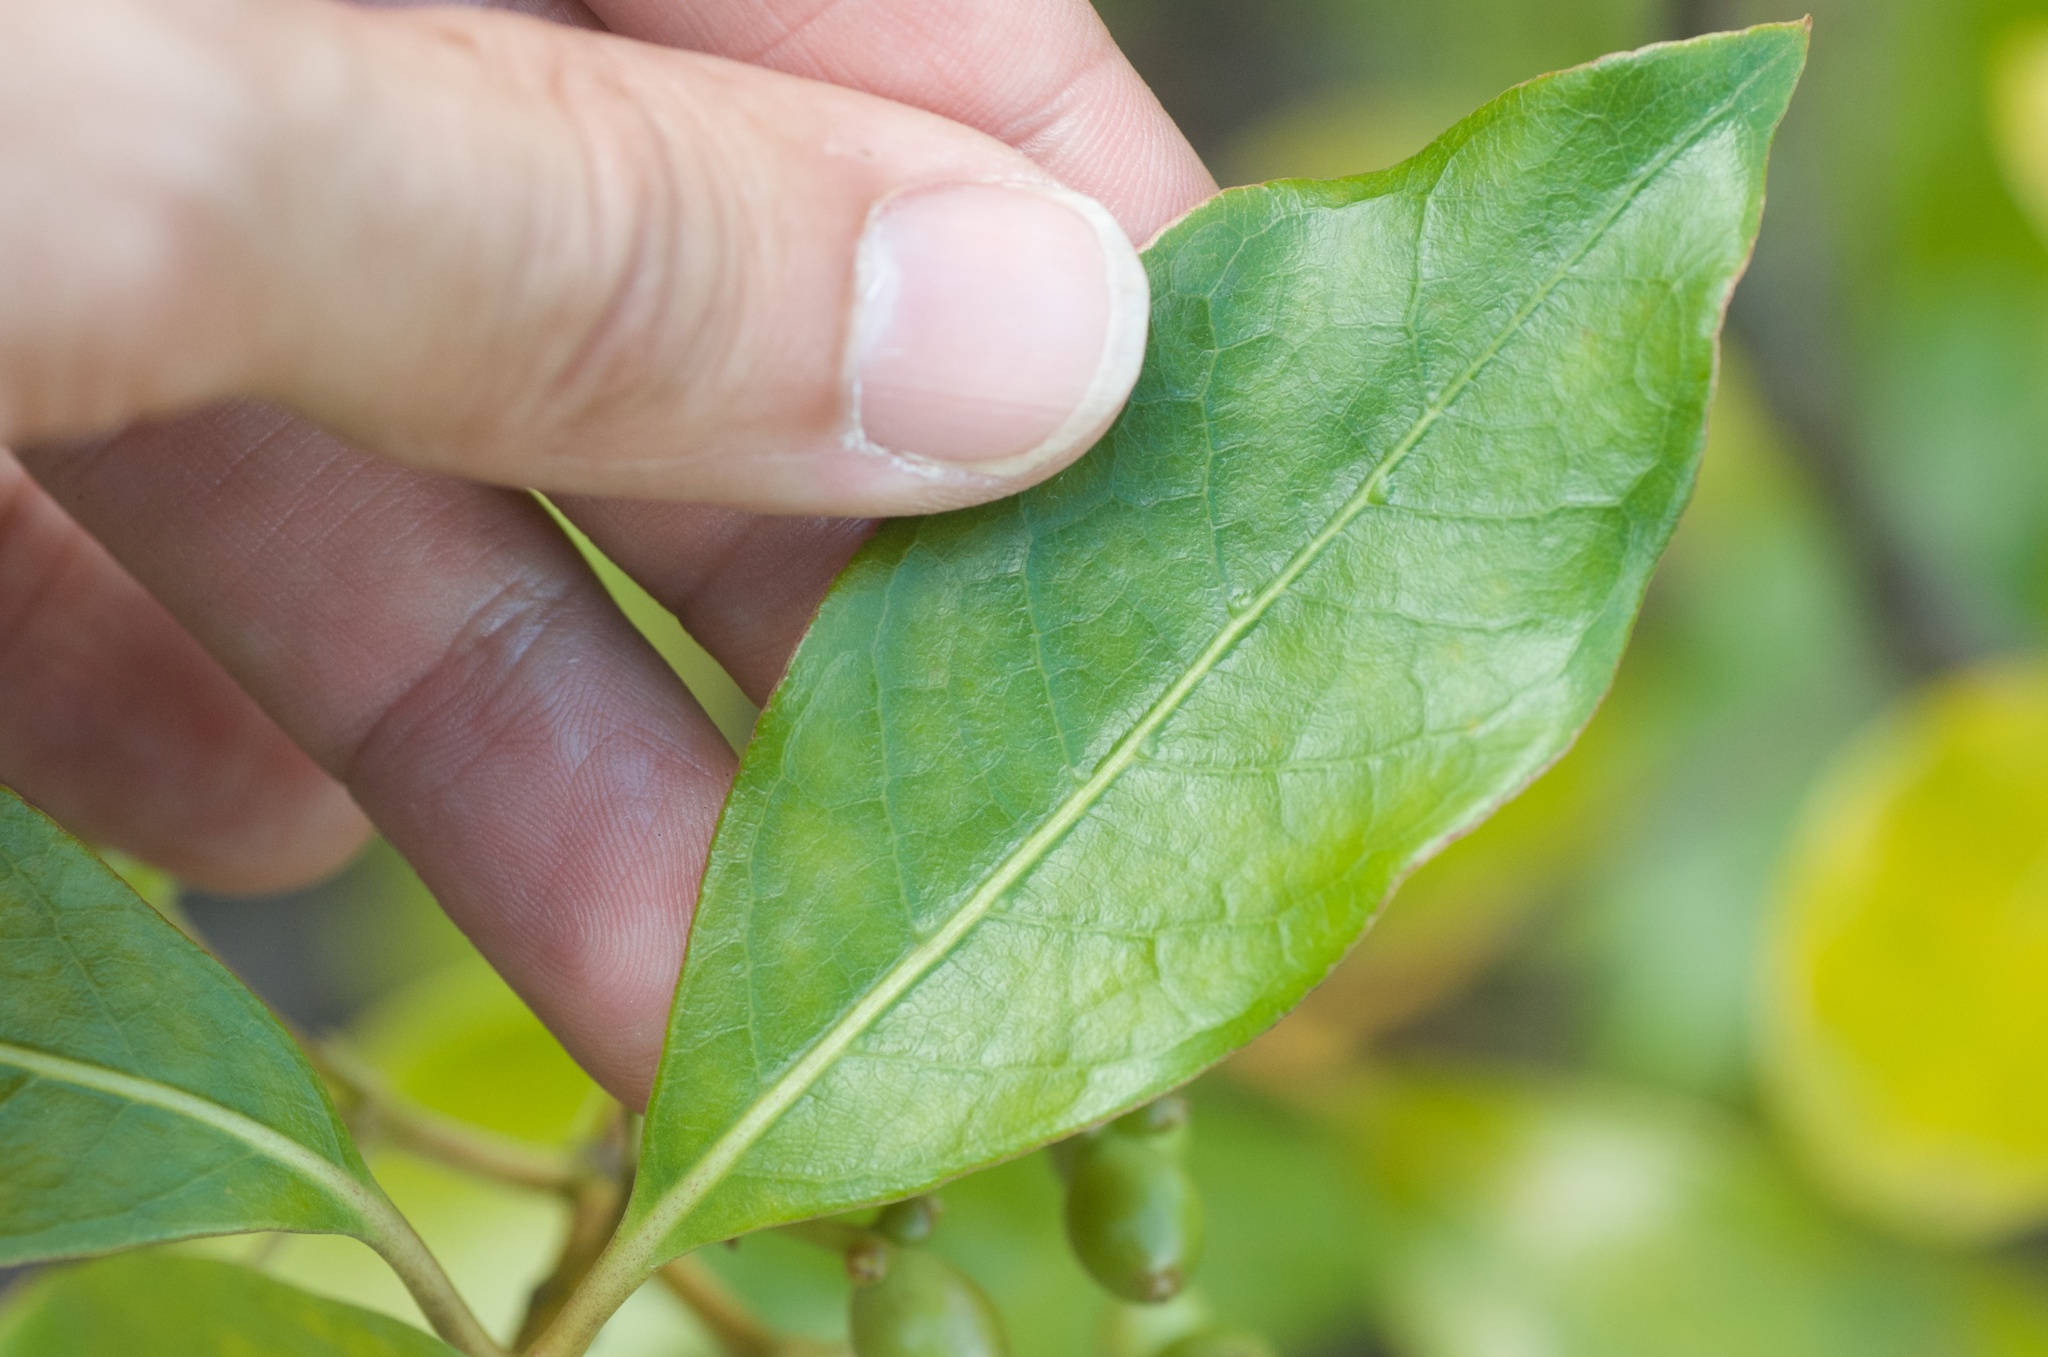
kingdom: Plantae
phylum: Tracheophyta
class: Magnoliopsida
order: Gentianales
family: Rubiaceae
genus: Coprosma
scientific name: Coprosma lucida
